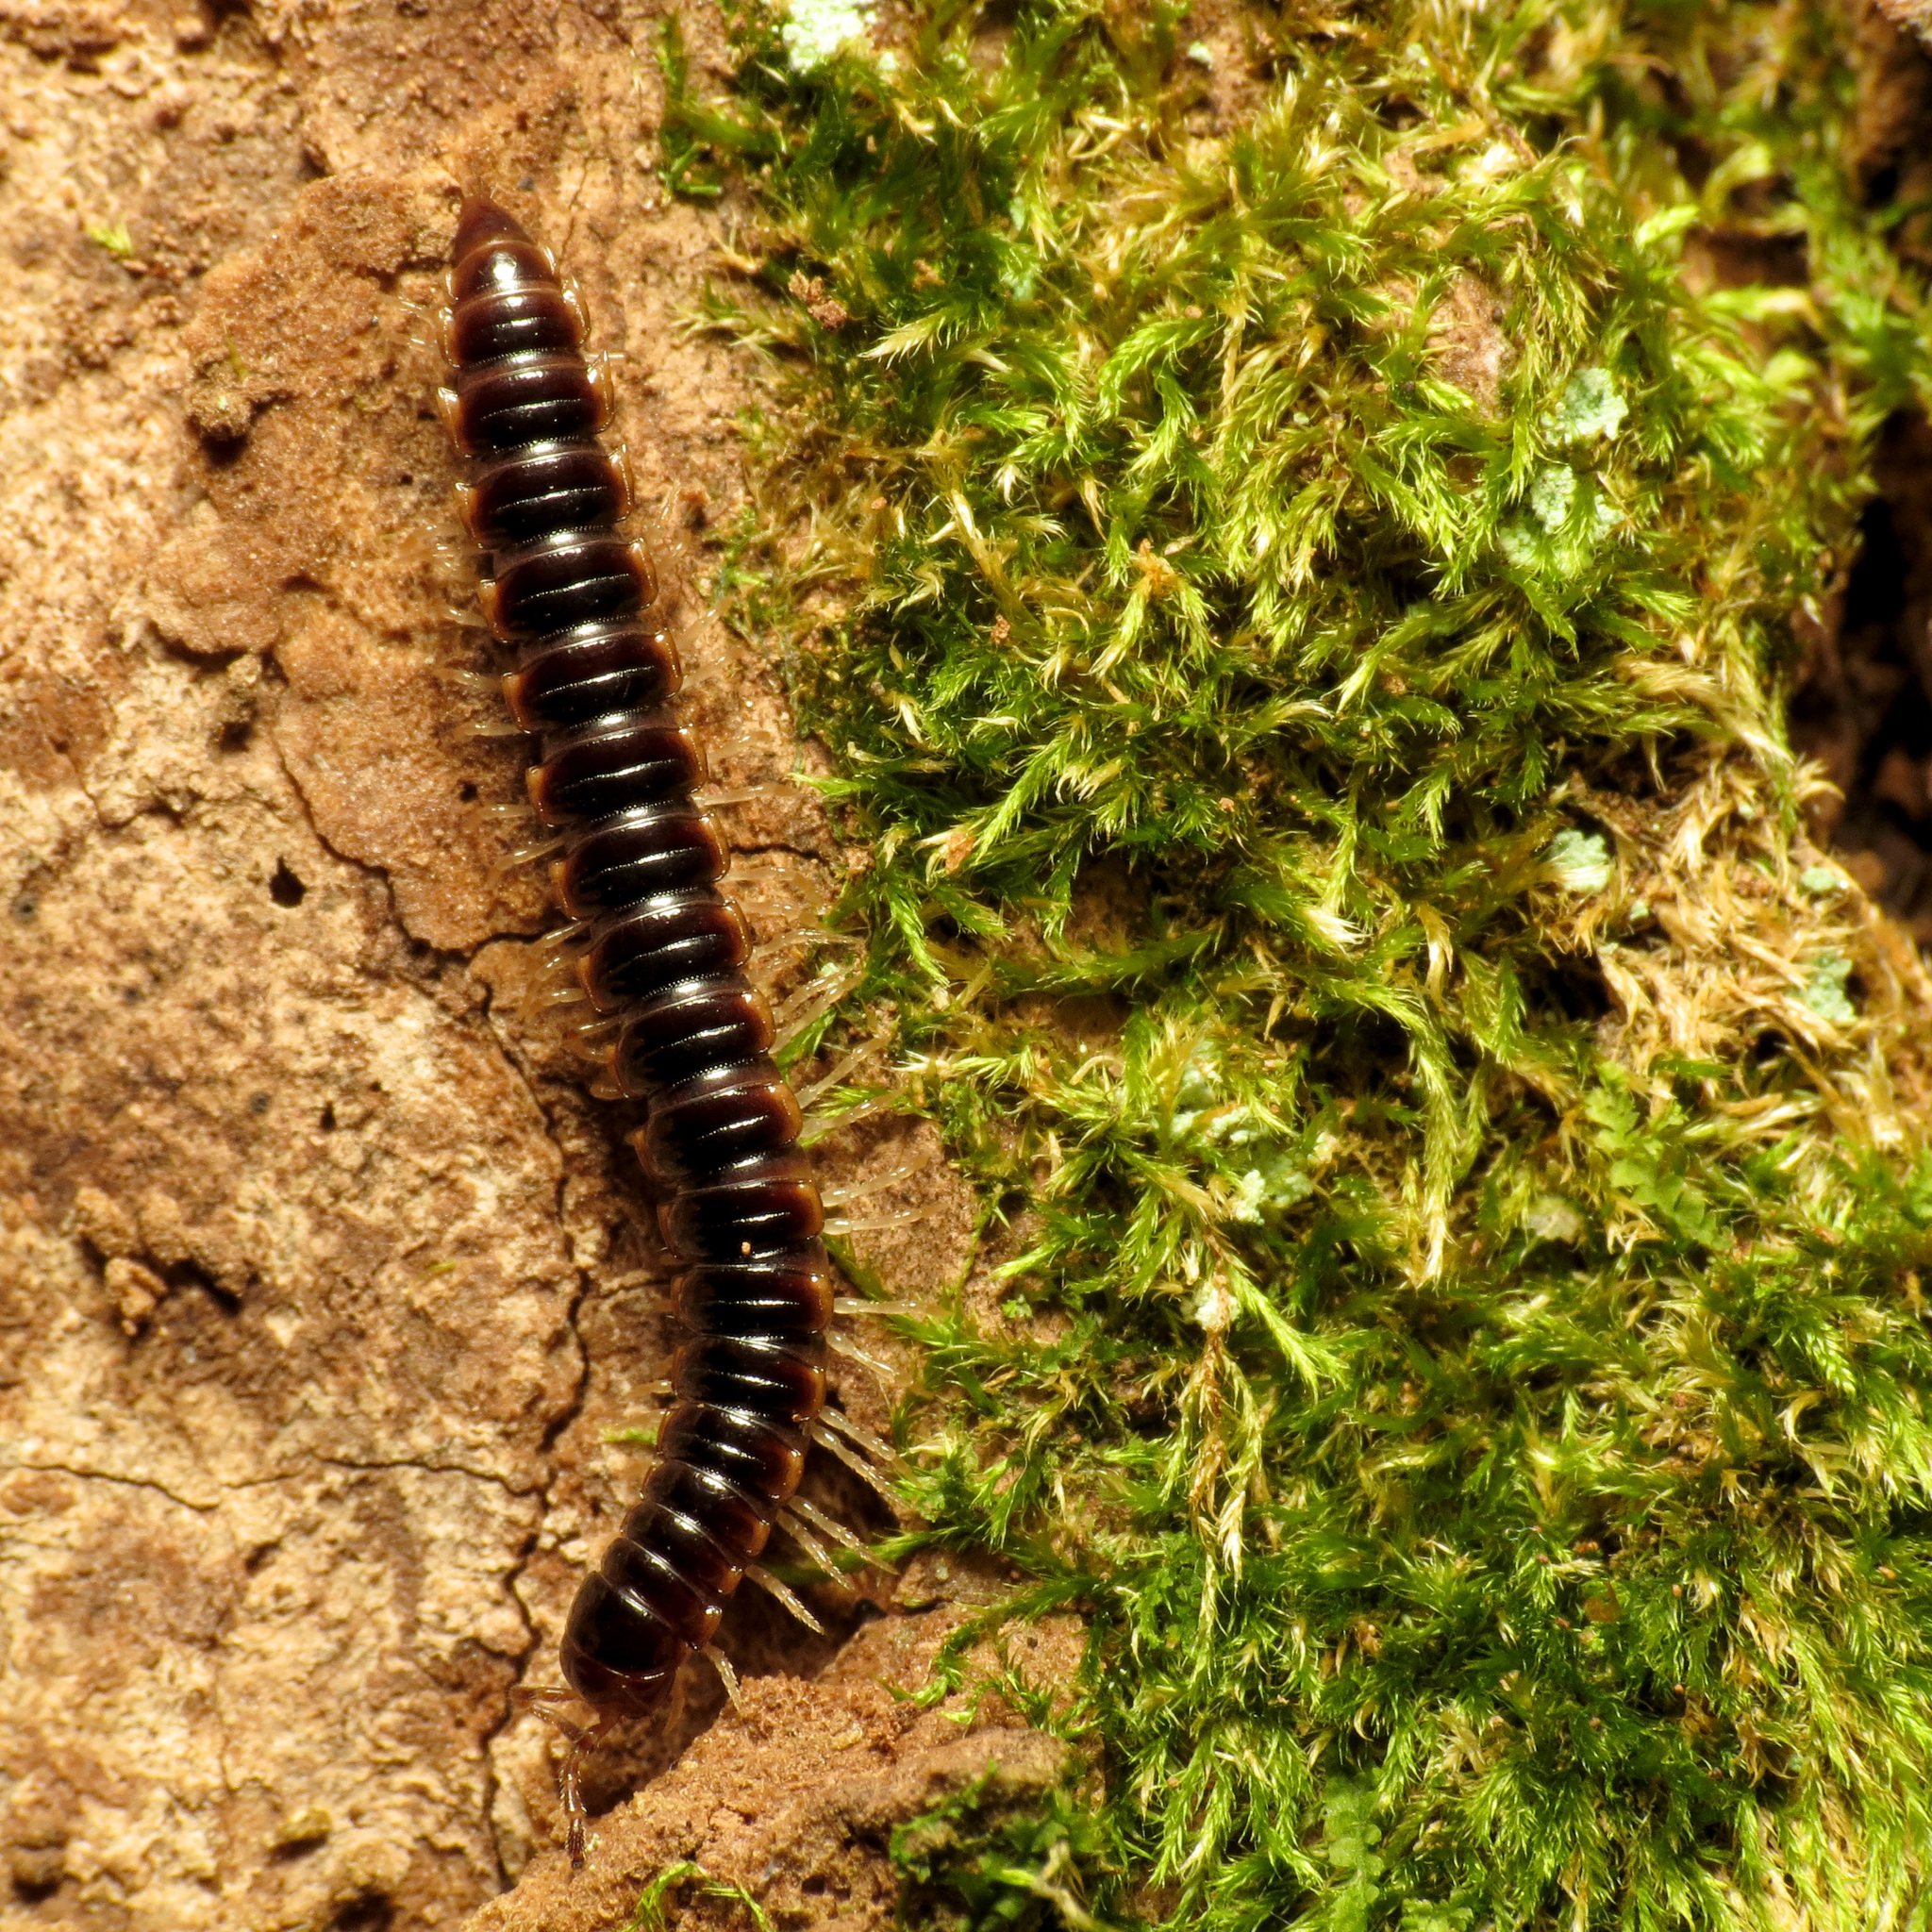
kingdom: Animalia
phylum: Arthropoda
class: Diplopoda
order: Polydesmida
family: Paradoxosomatidae
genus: Oxidus
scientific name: Oxidus gracilis
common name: Greenhouse millipede
